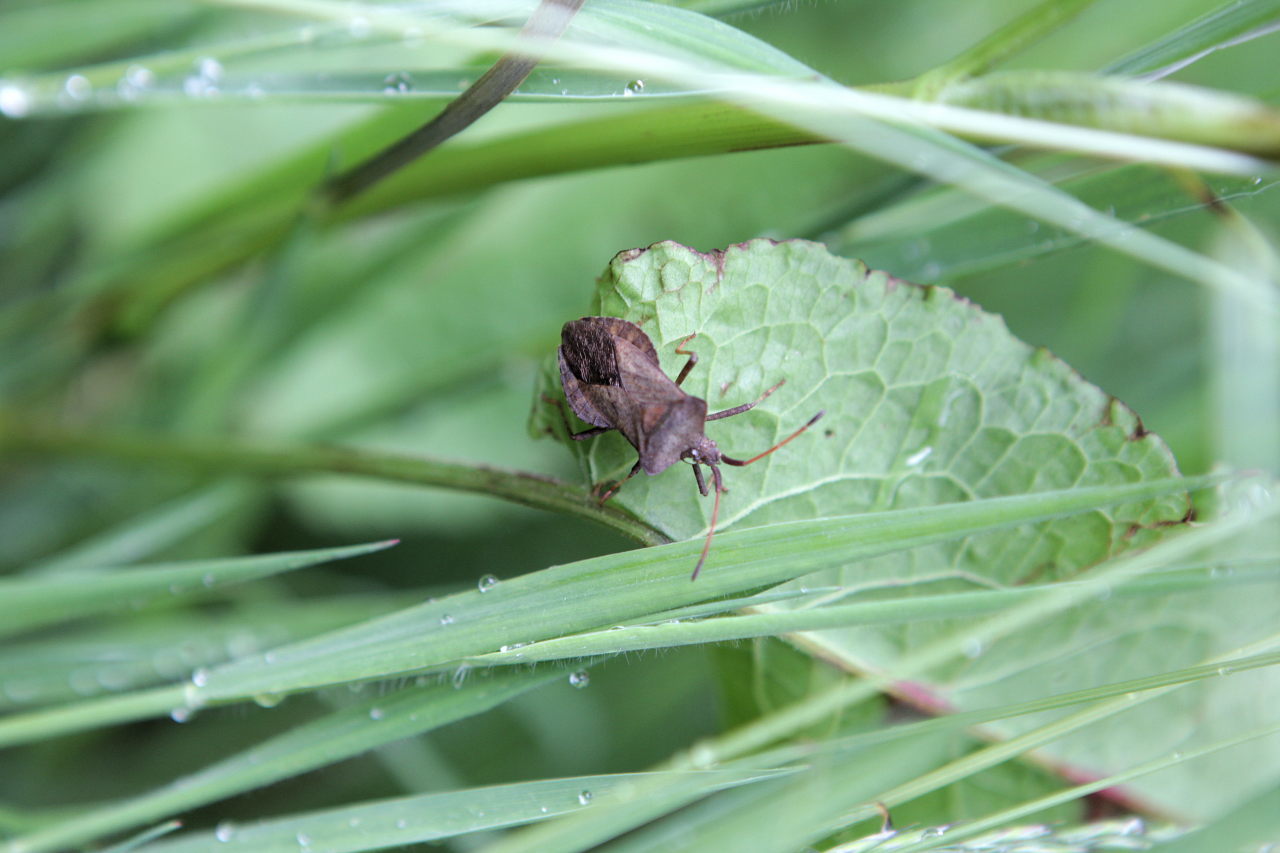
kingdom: Animalia
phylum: Arthropoda
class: Insecta
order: Hemiptera
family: Coreidae
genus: Coreus
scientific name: Coreus marginatus
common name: Dock bug
